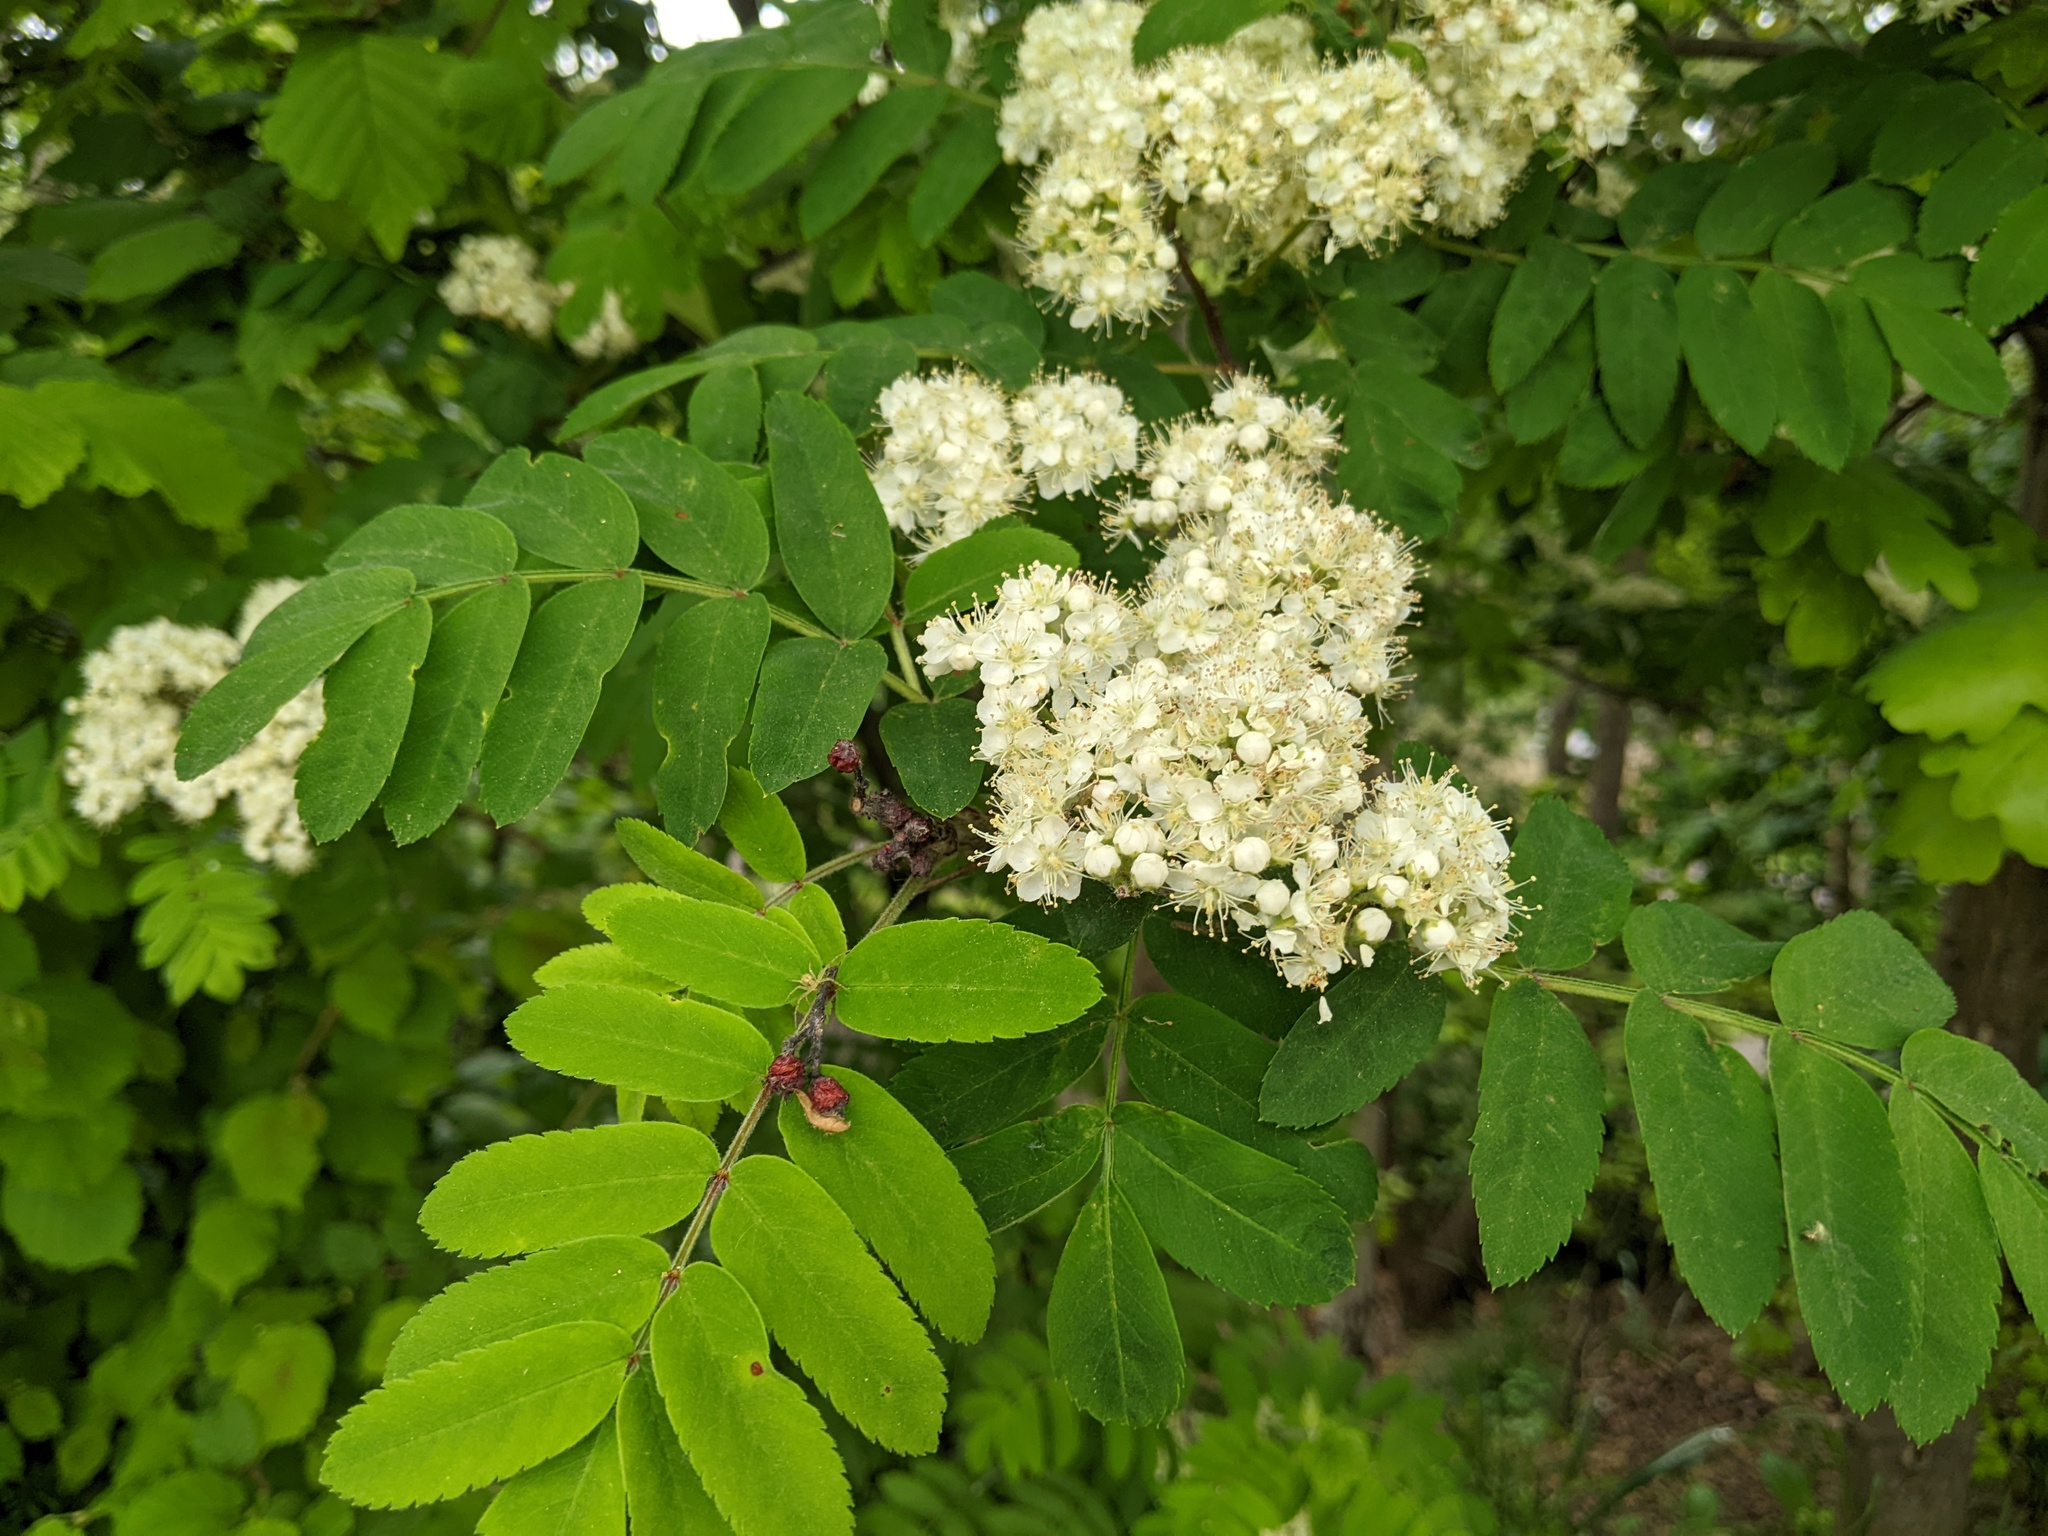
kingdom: Plantae
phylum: Tracheophyta
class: Magnoliopsida
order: Rosales
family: Rosaceae
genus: Sorbus
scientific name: Sorbus aucuparia
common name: Rowan
